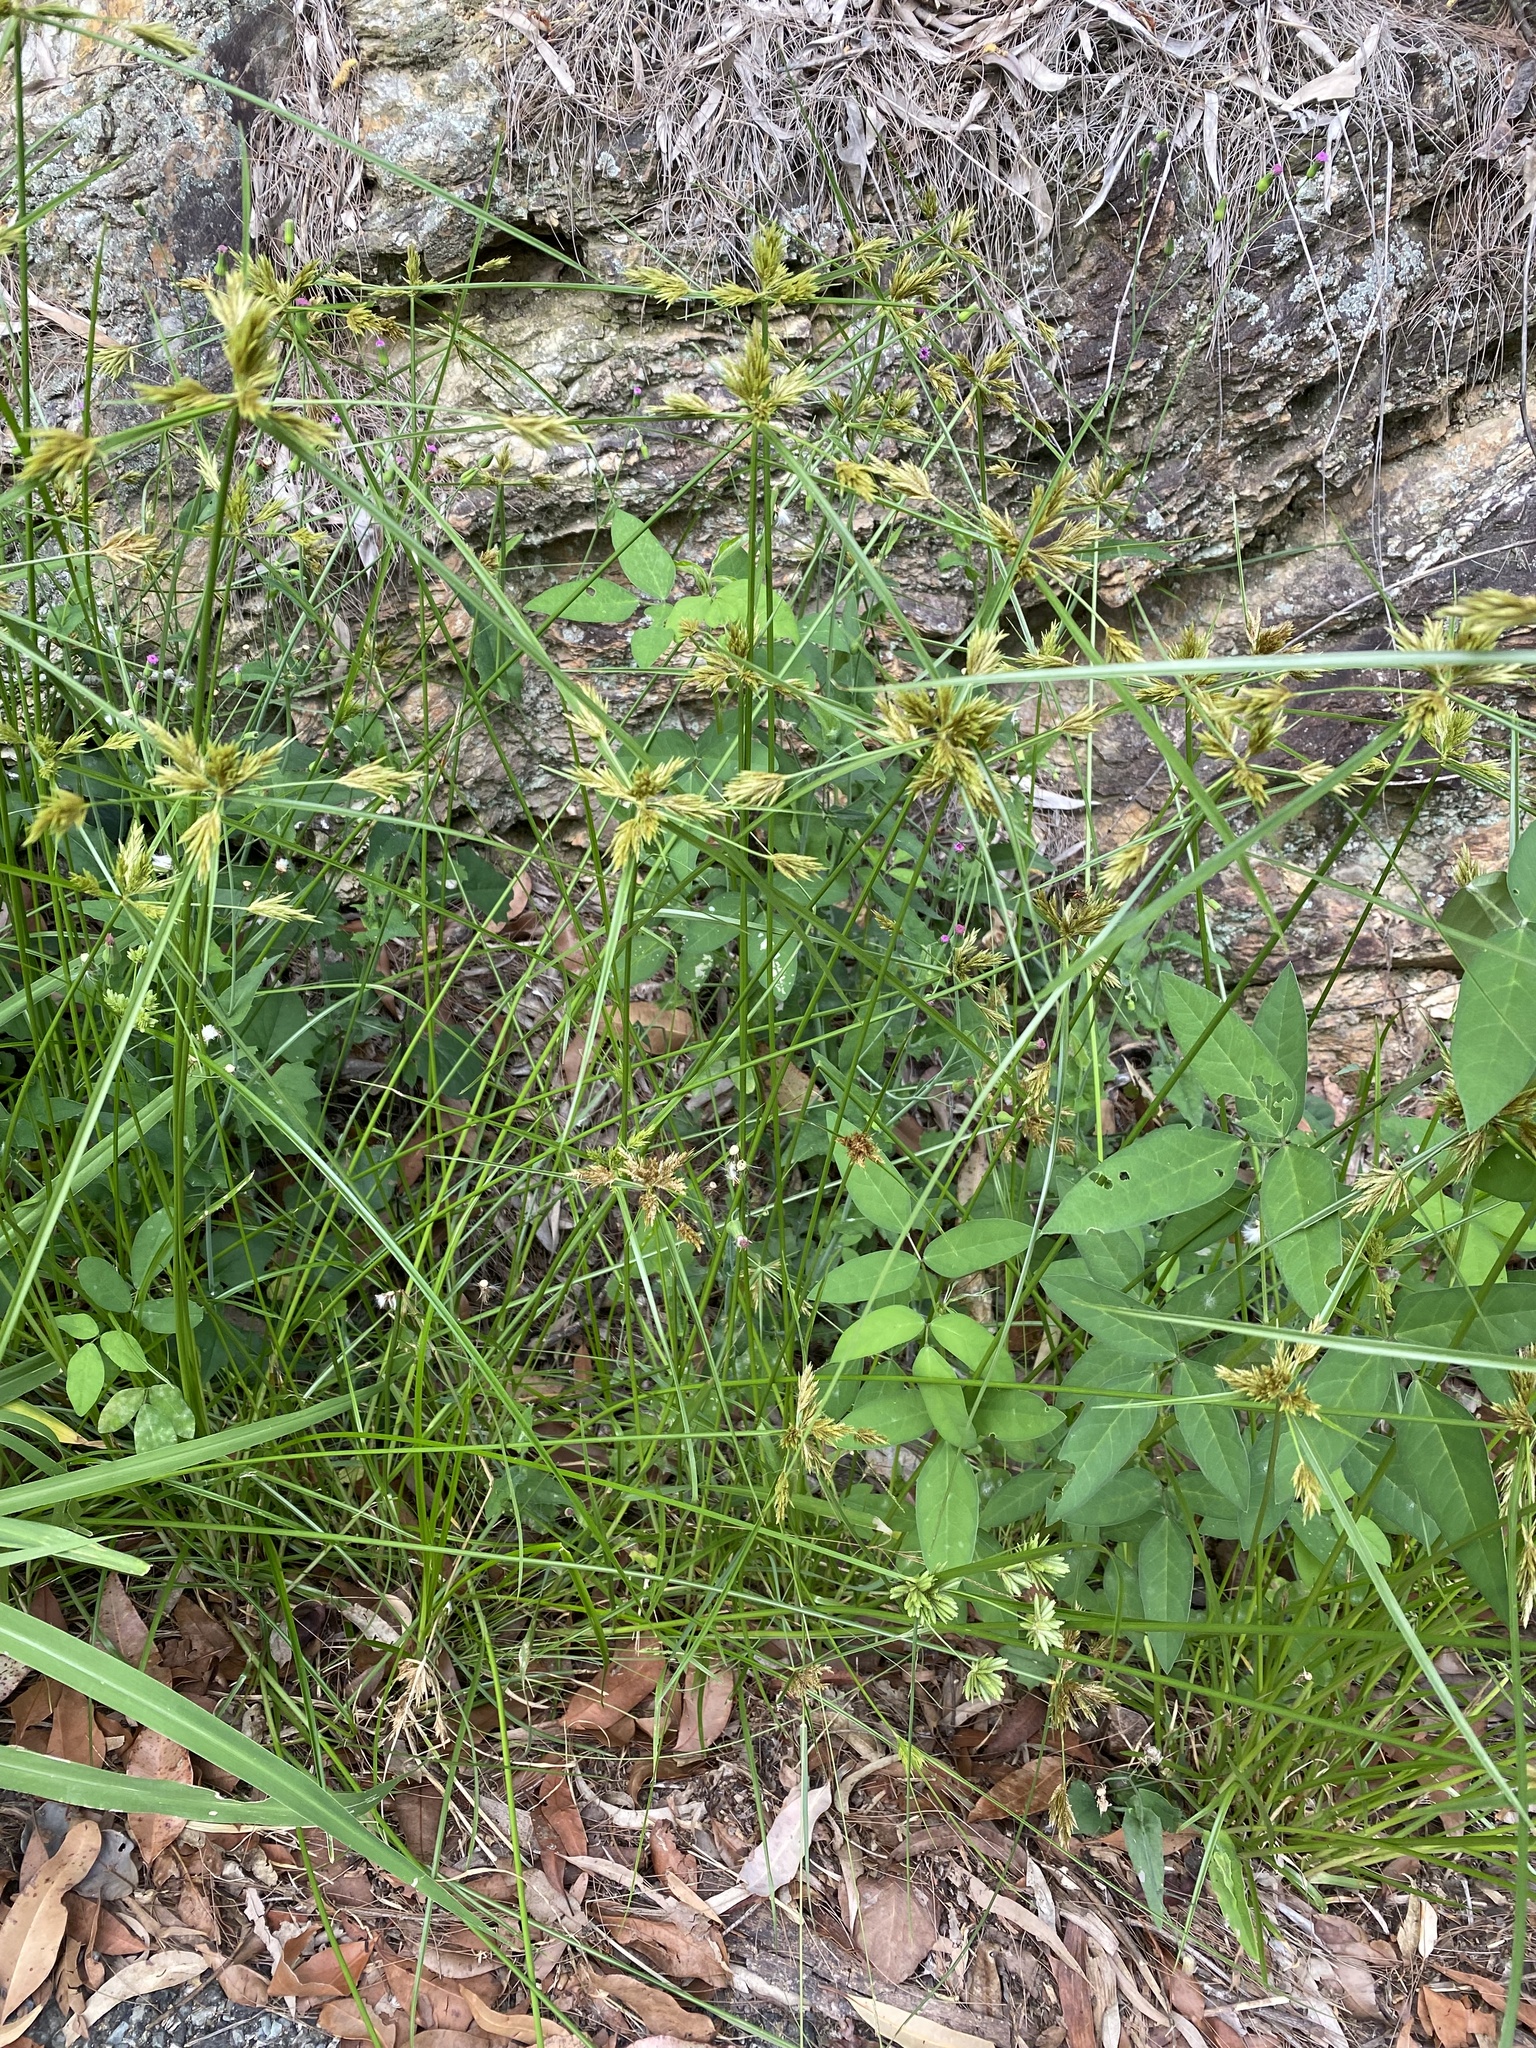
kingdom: Plantae
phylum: Tracheophyta
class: Liliopsida
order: Poales
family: Cyperaceae
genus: Cyperus
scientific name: Cyperus polystachyos
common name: Bunchy flat sedge
